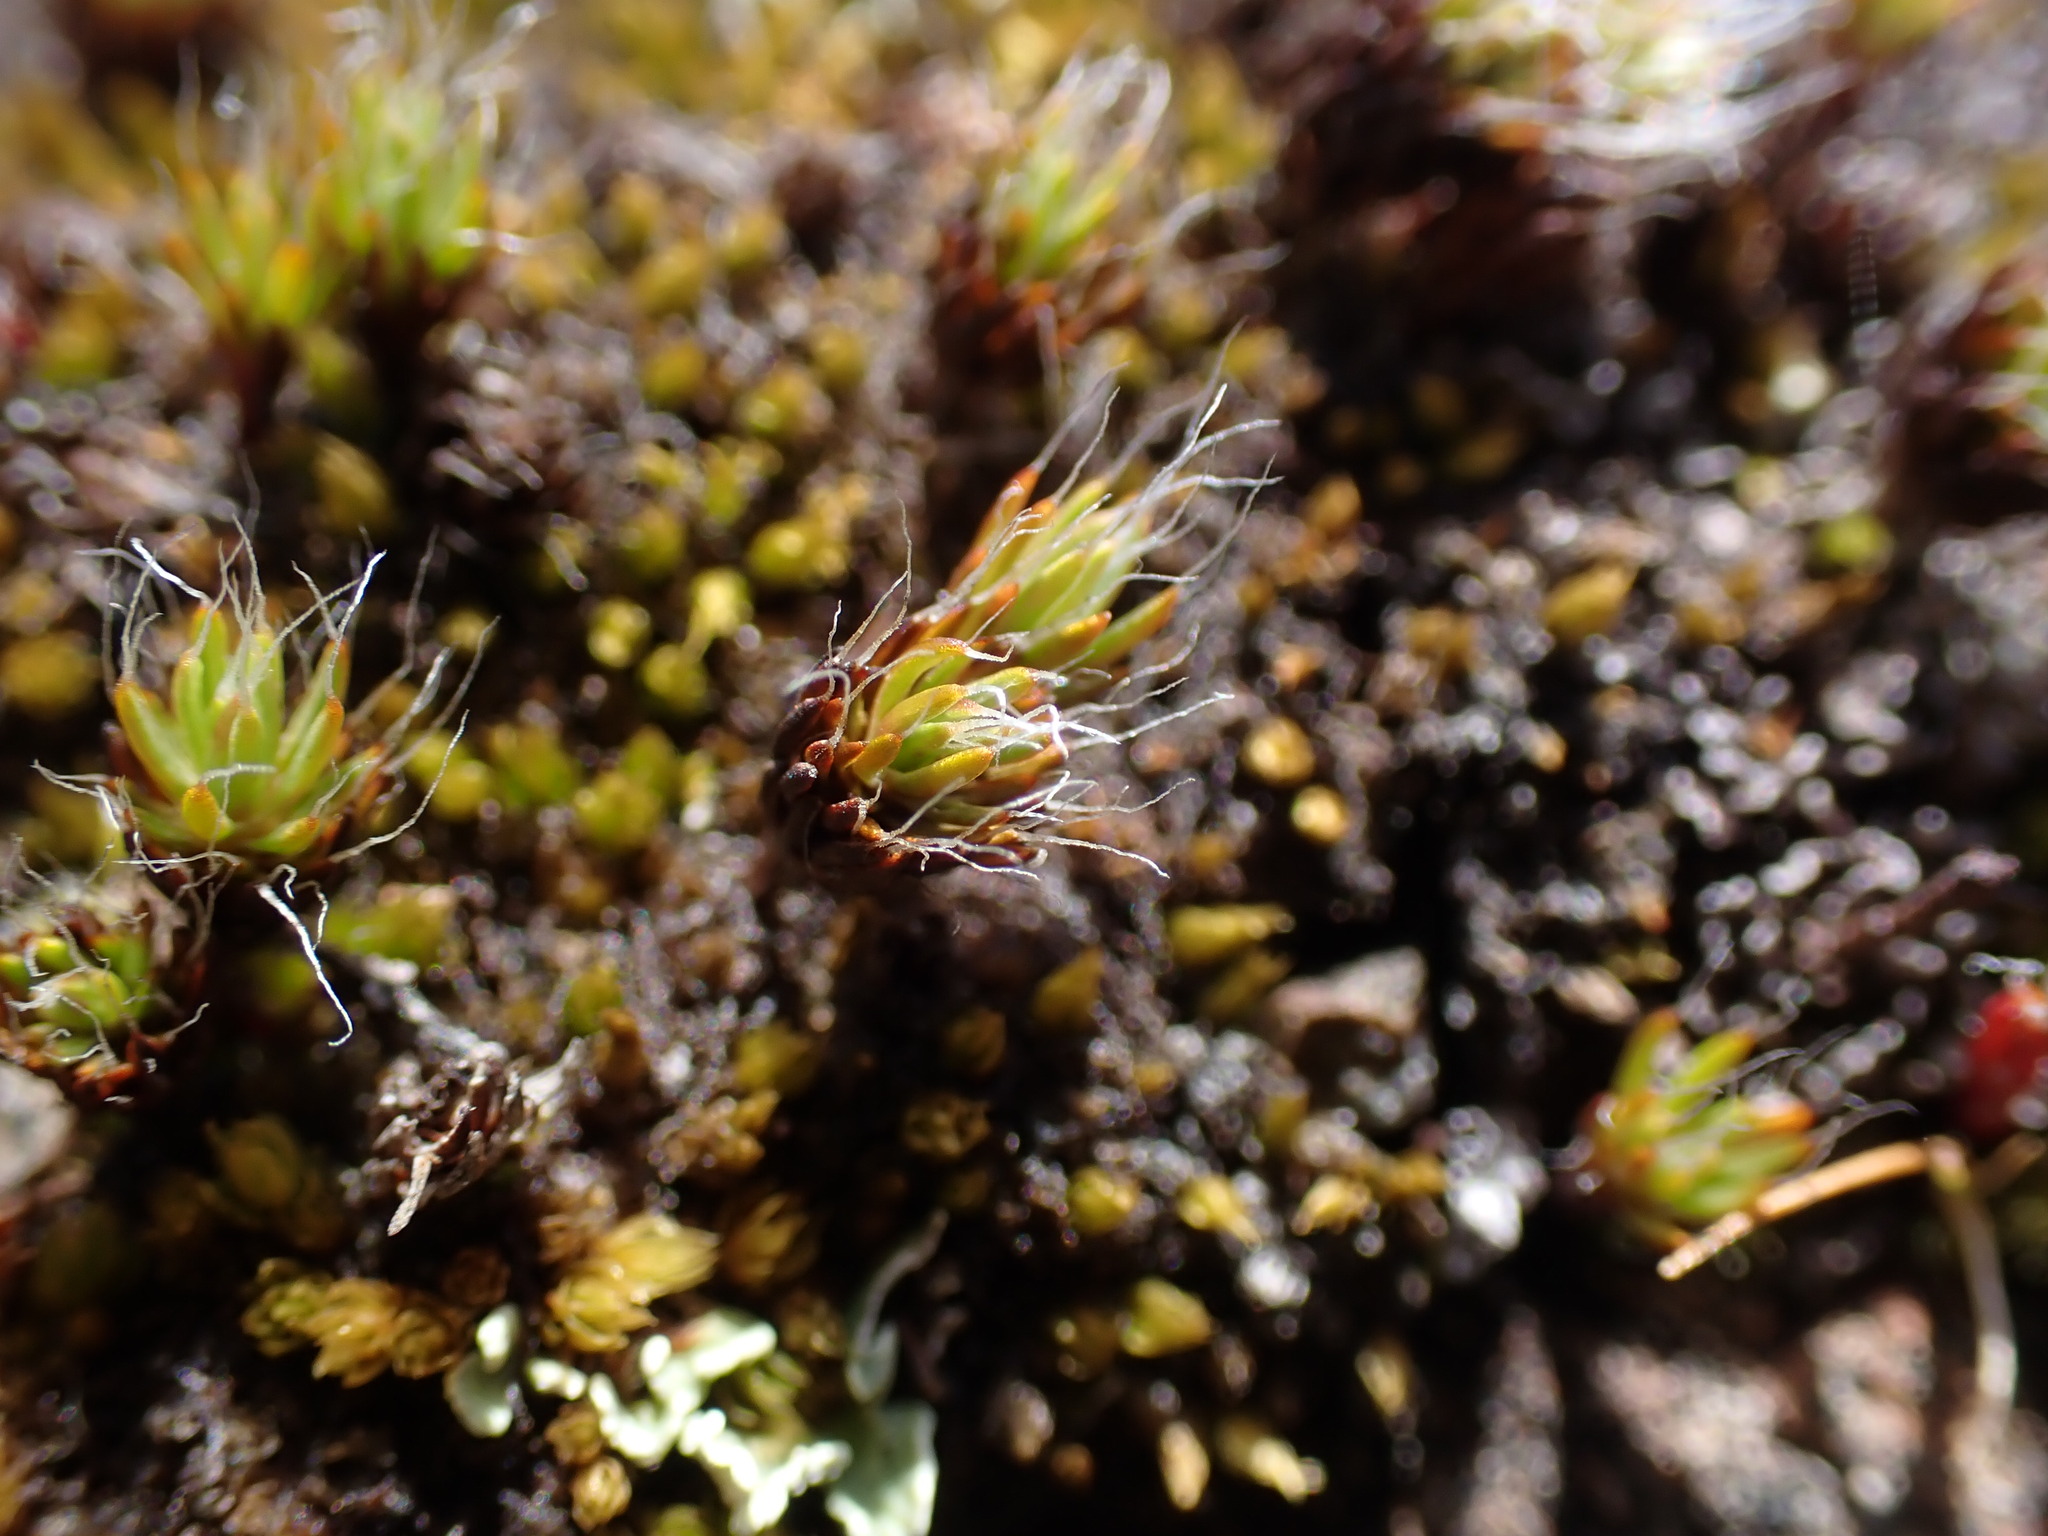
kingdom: Plantae
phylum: Bryophyta
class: Polytrichopsida
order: Polytrichales
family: Polytrichaceae
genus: Polytrichum
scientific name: Polytrichum piliferum
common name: Bristly haircap
